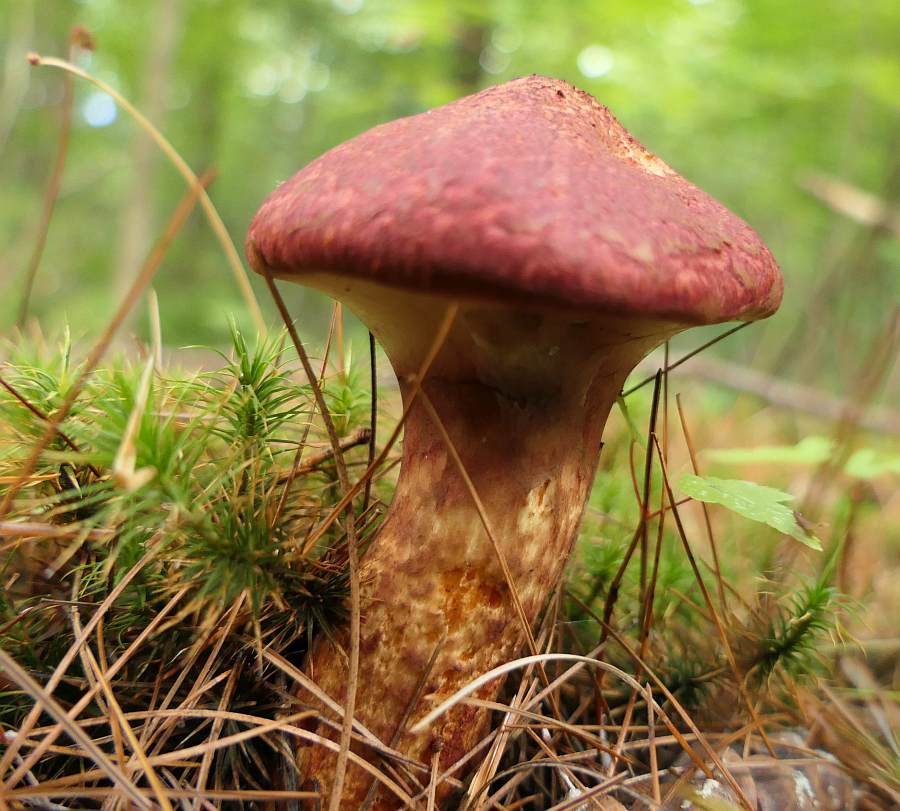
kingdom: Fungi
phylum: Basidiomycota
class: Agaricomycetes
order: Boletales
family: Suillaceae
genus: Suillus
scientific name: Suillus spraguei
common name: Painted suillus
